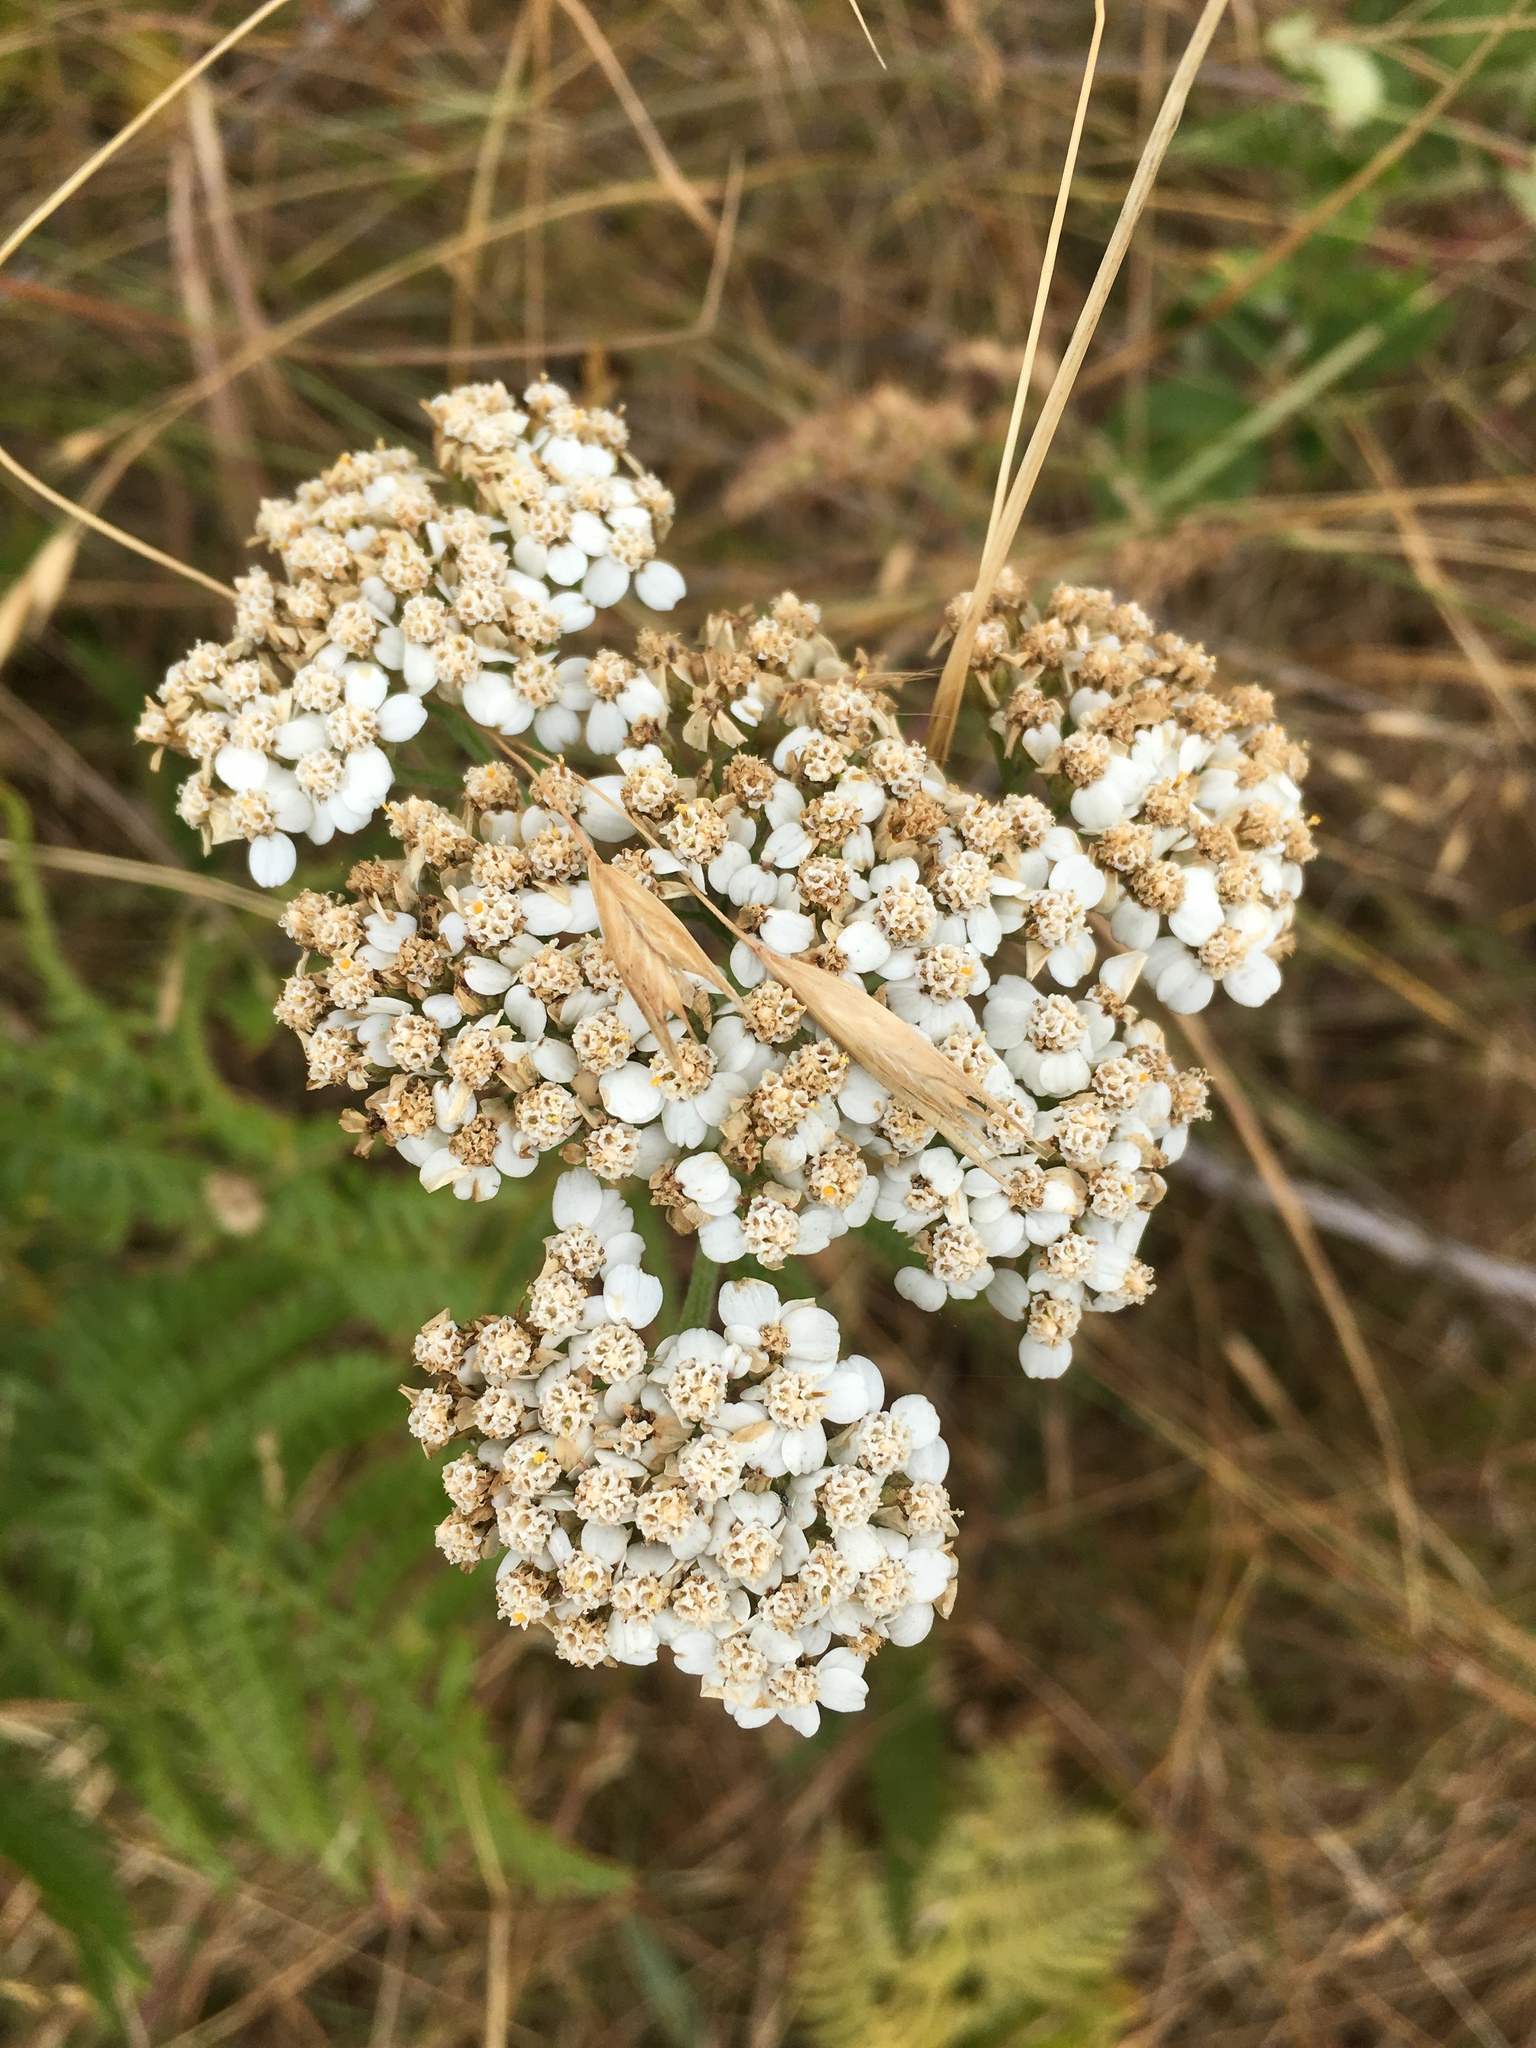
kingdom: Plantae
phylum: Tracheophyta
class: Magnoliopsida
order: Asterales
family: Asteraceae
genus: Achillea
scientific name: Achillea millefolium
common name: Yarrow
